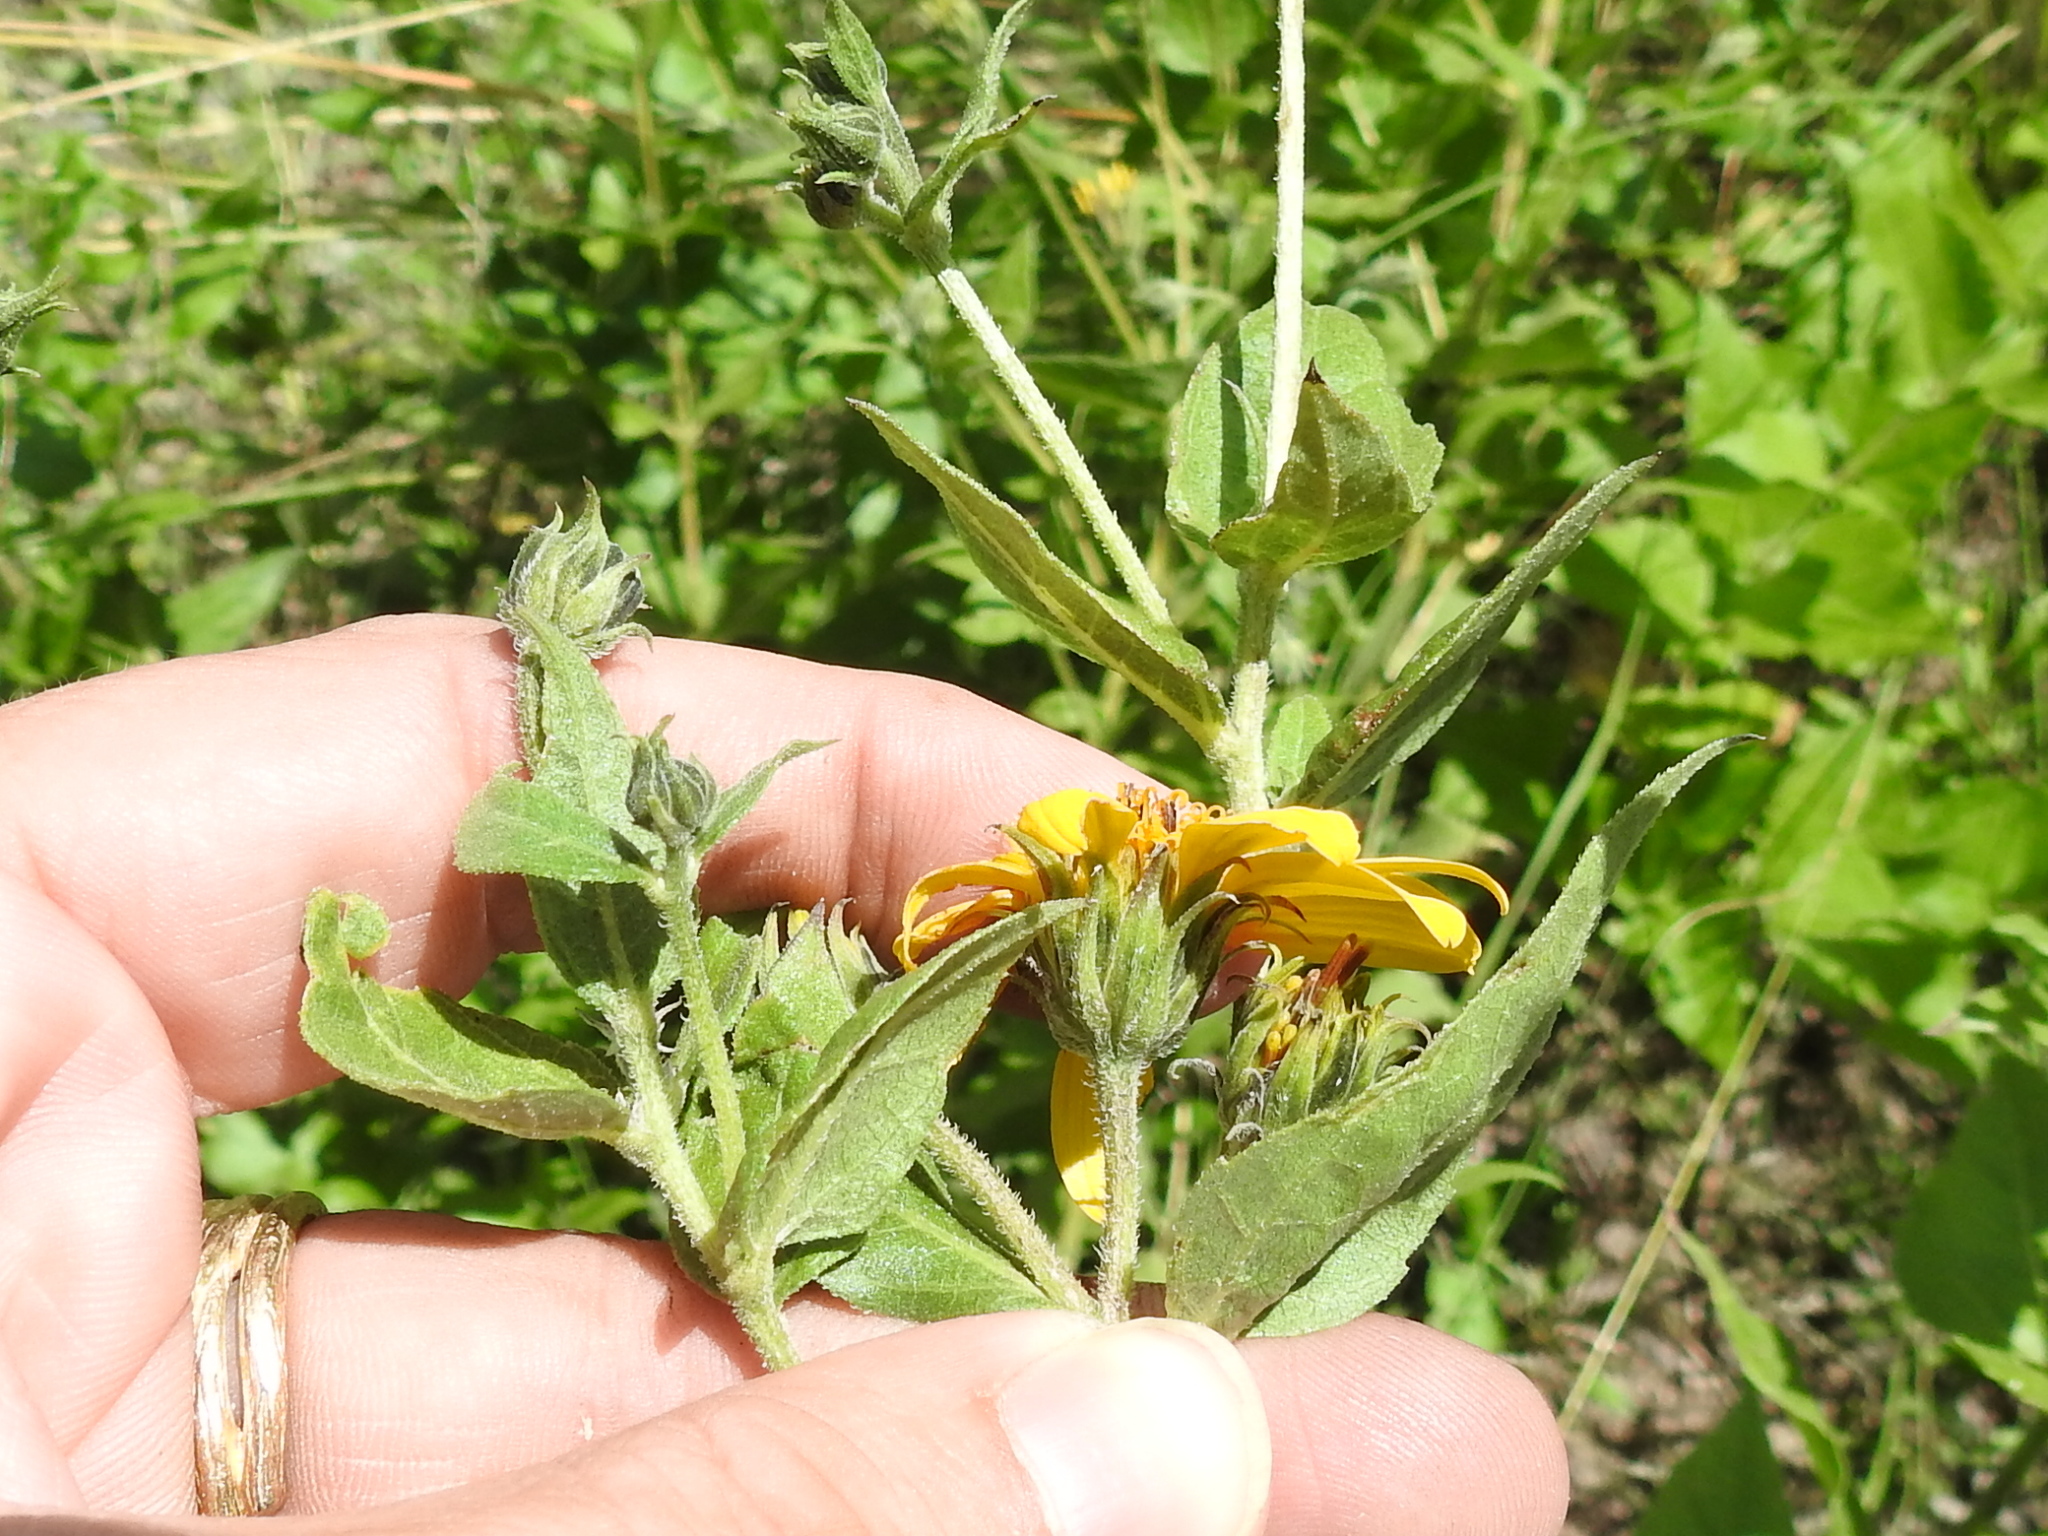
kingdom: Plantae
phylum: Tracheophyta
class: Magnoliopsida
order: Asterales
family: Asteraceae
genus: Aldama
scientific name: Aldama cordifolia
